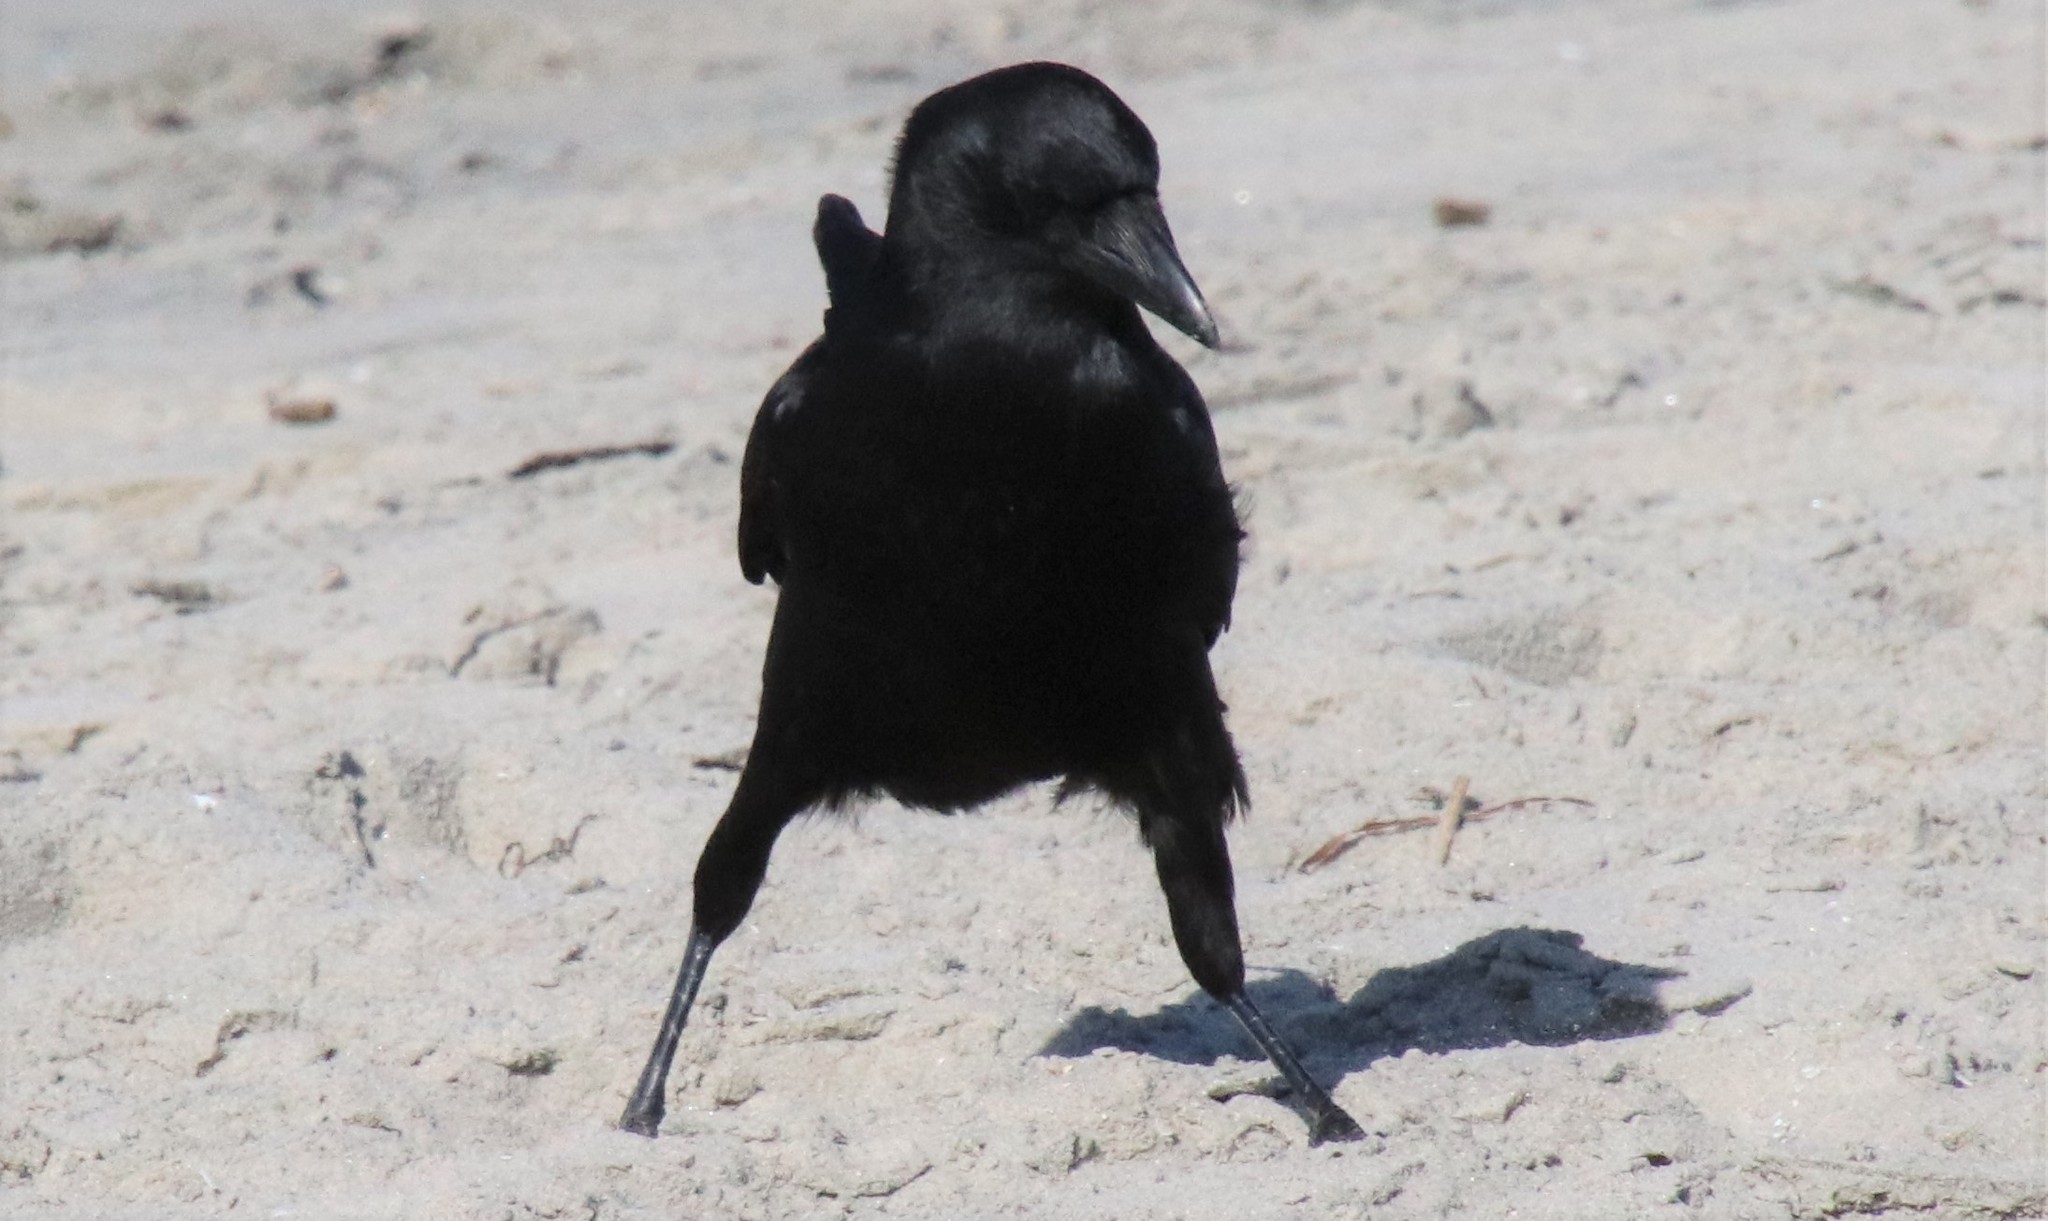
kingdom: Animalia
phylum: Chordata
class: Aves
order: Passeriformes
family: Corvidae
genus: Corvus
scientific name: Corvus brachyrhynchos
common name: American crow
